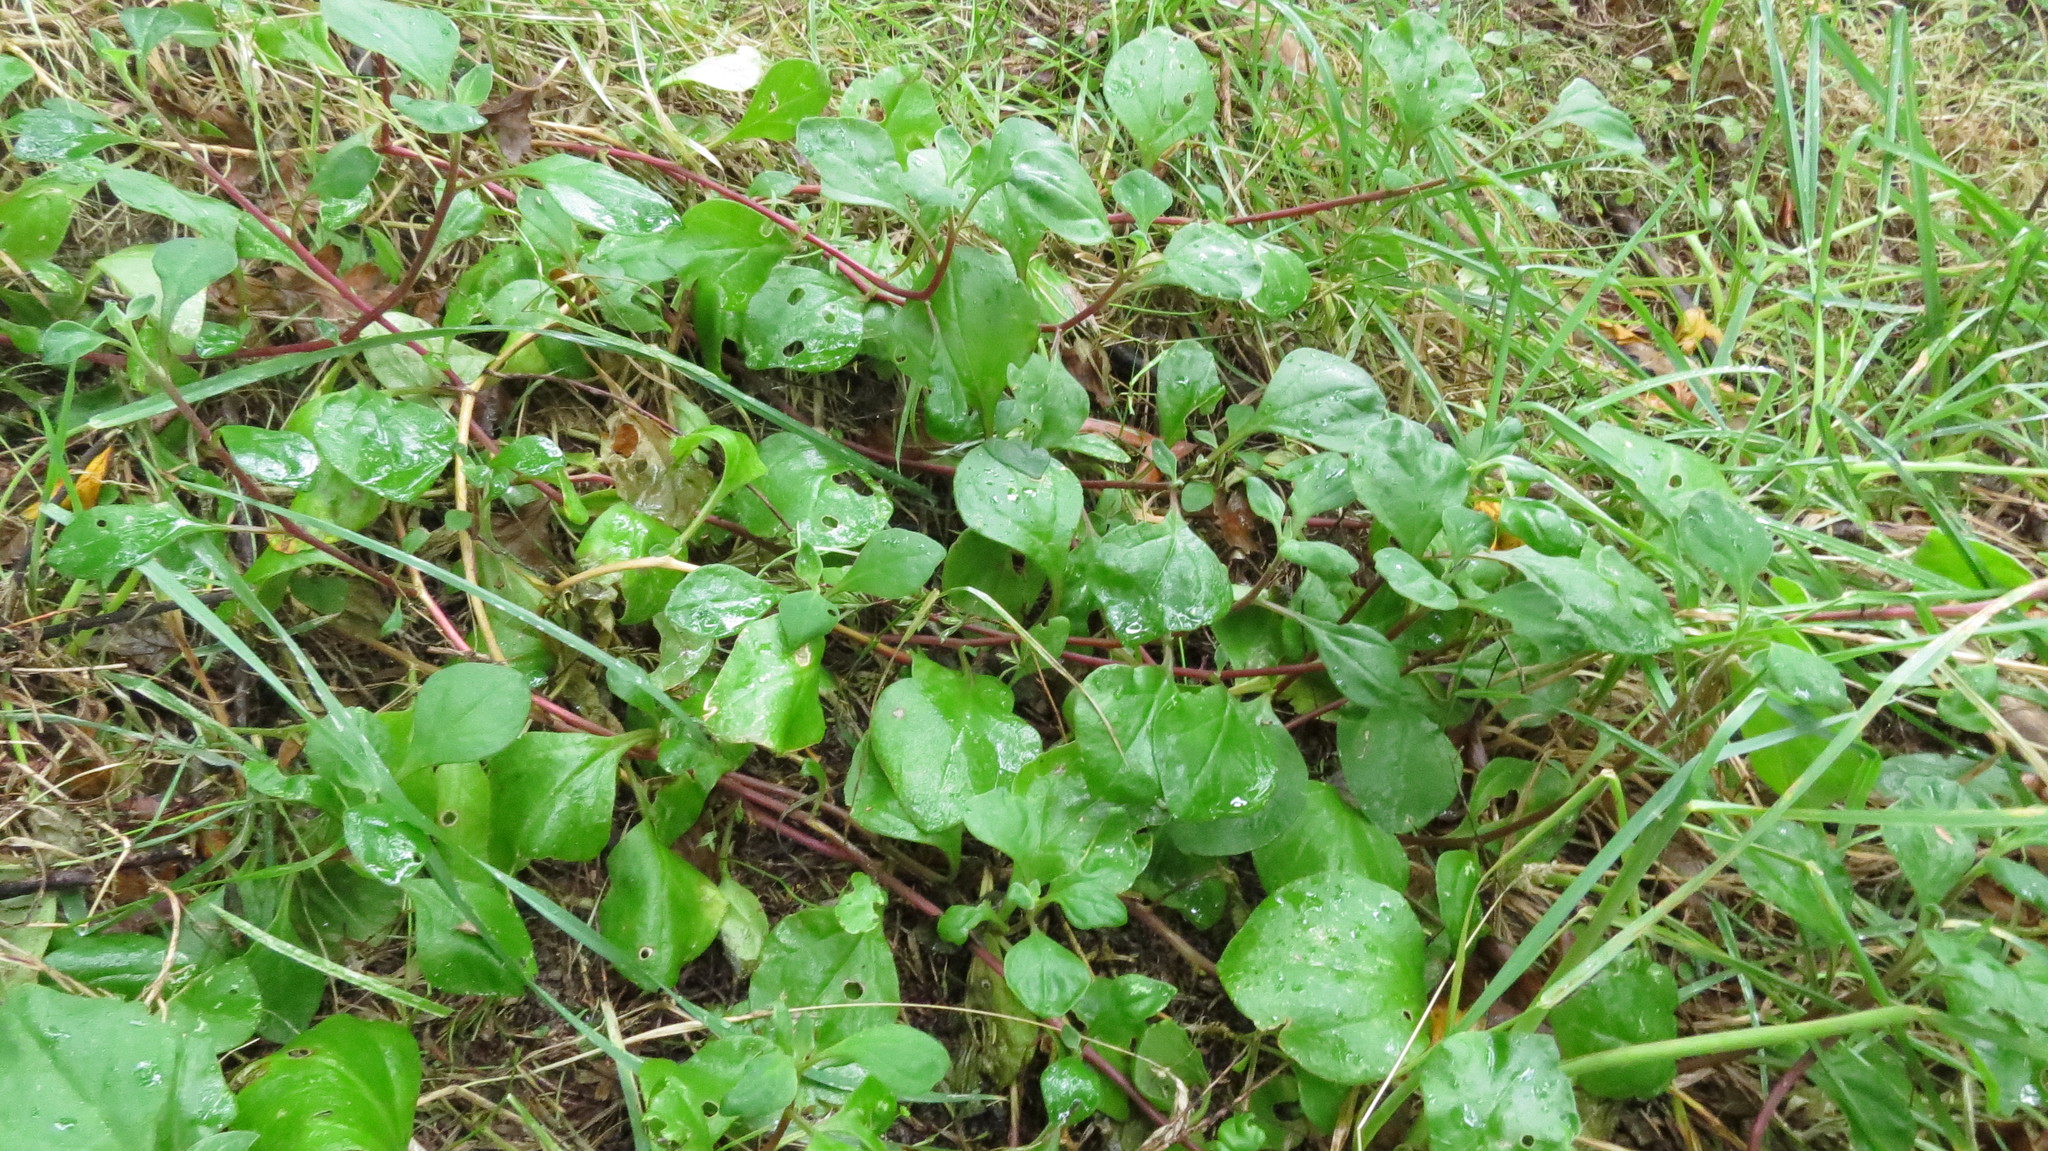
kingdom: Plantae
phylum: Tracheophyta
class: Magnoliopsida
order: Caryophyllales
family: Aizoaceae
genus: Tetragonia
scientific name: Tetragonia implexicoma
